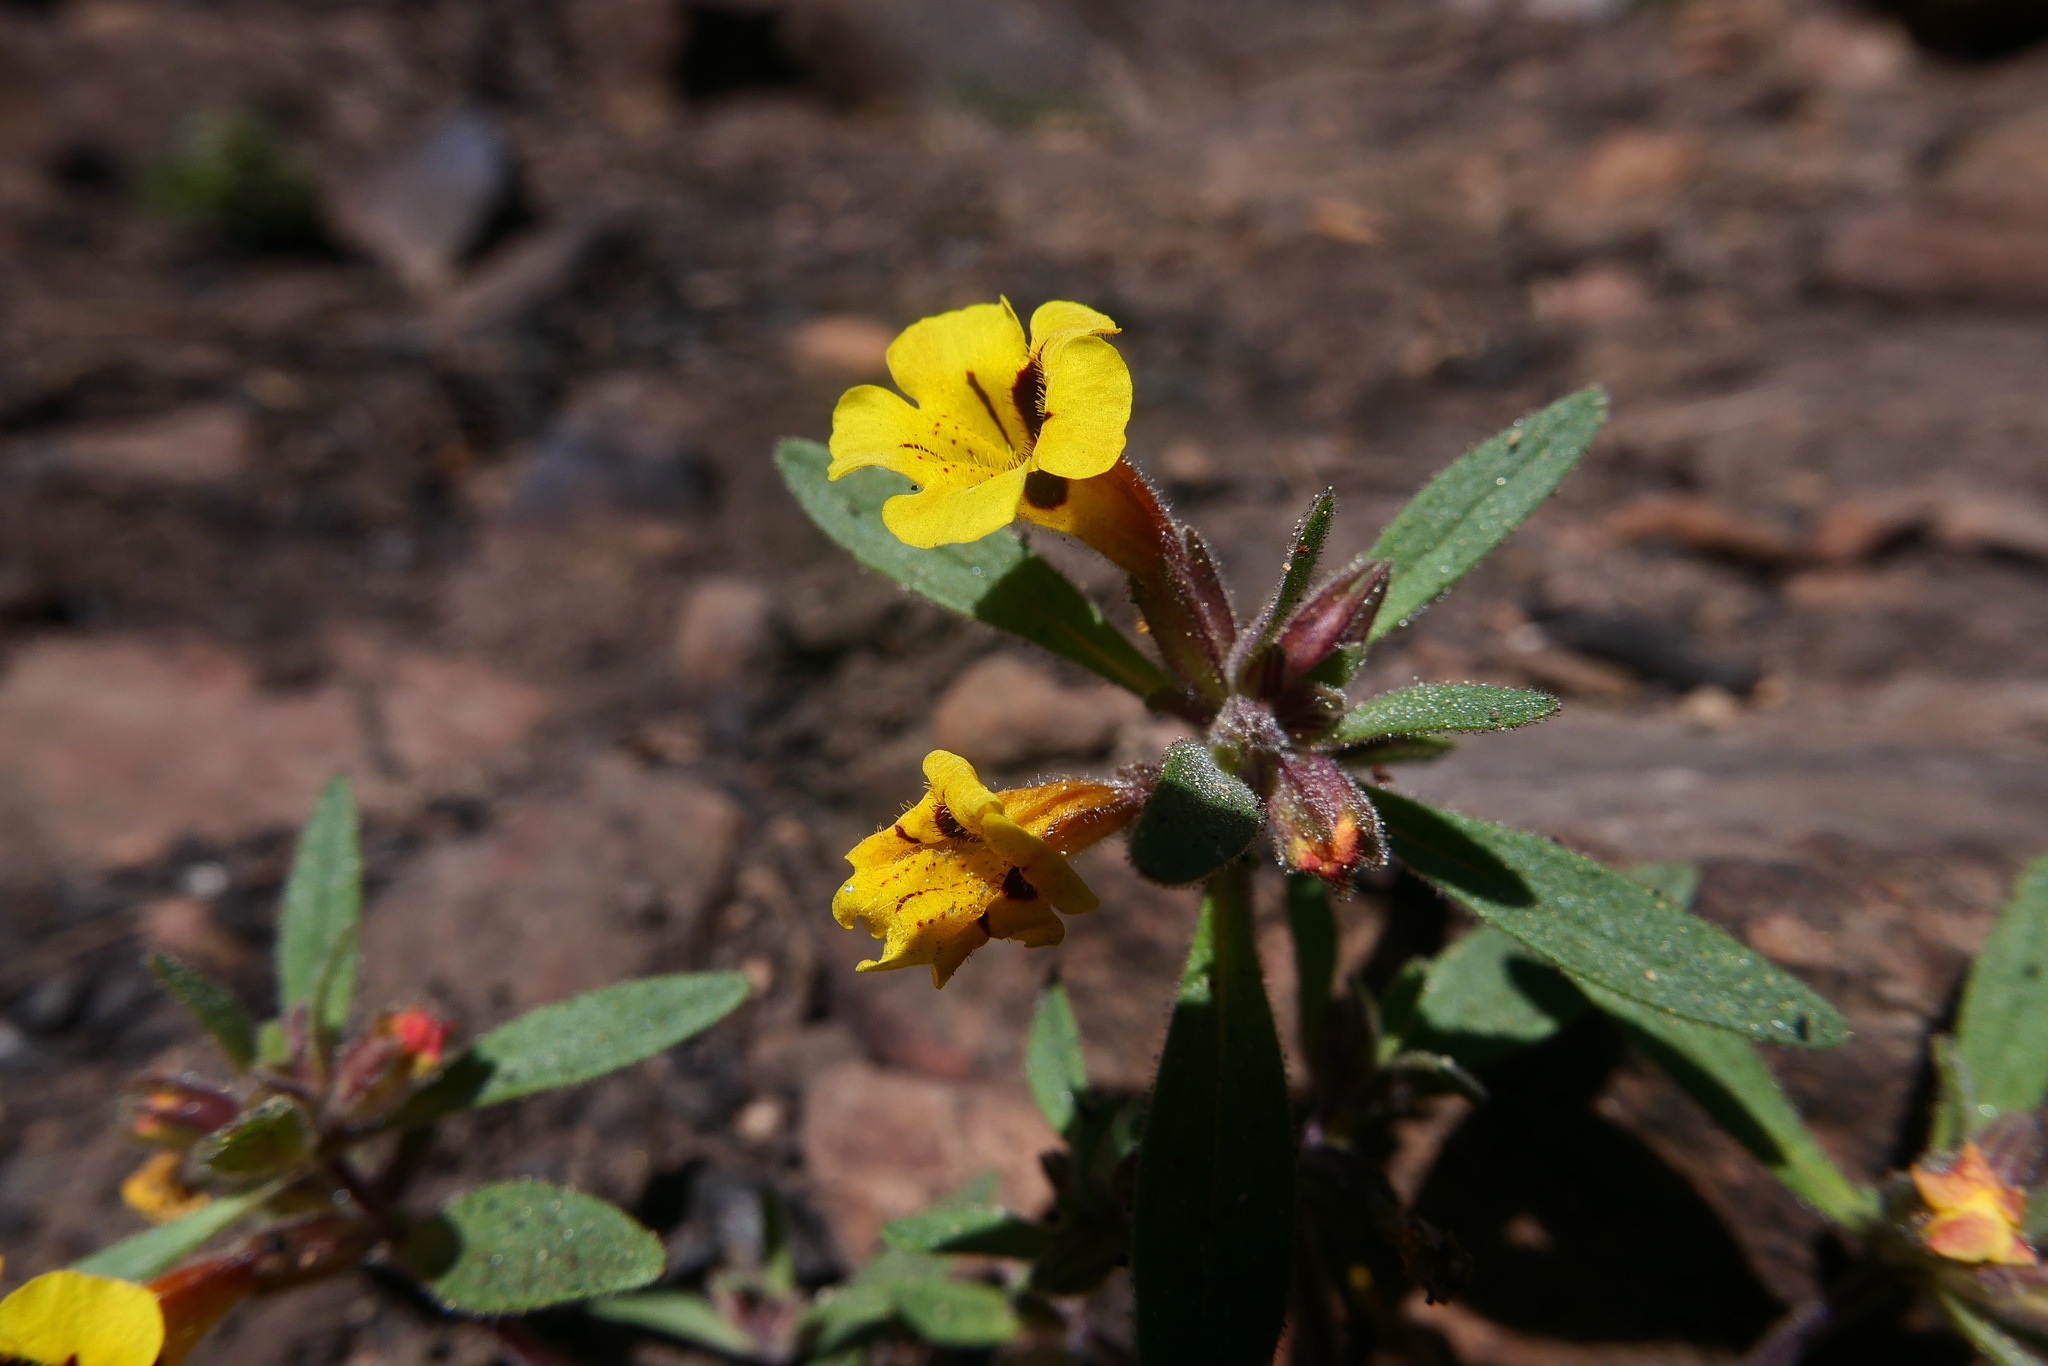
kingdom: Plantae
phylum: Tracheophyta
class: Magnoliopsida
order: Lamiales
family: Phrymaceae
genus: Diplacus
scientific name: Diplacus bicolor
